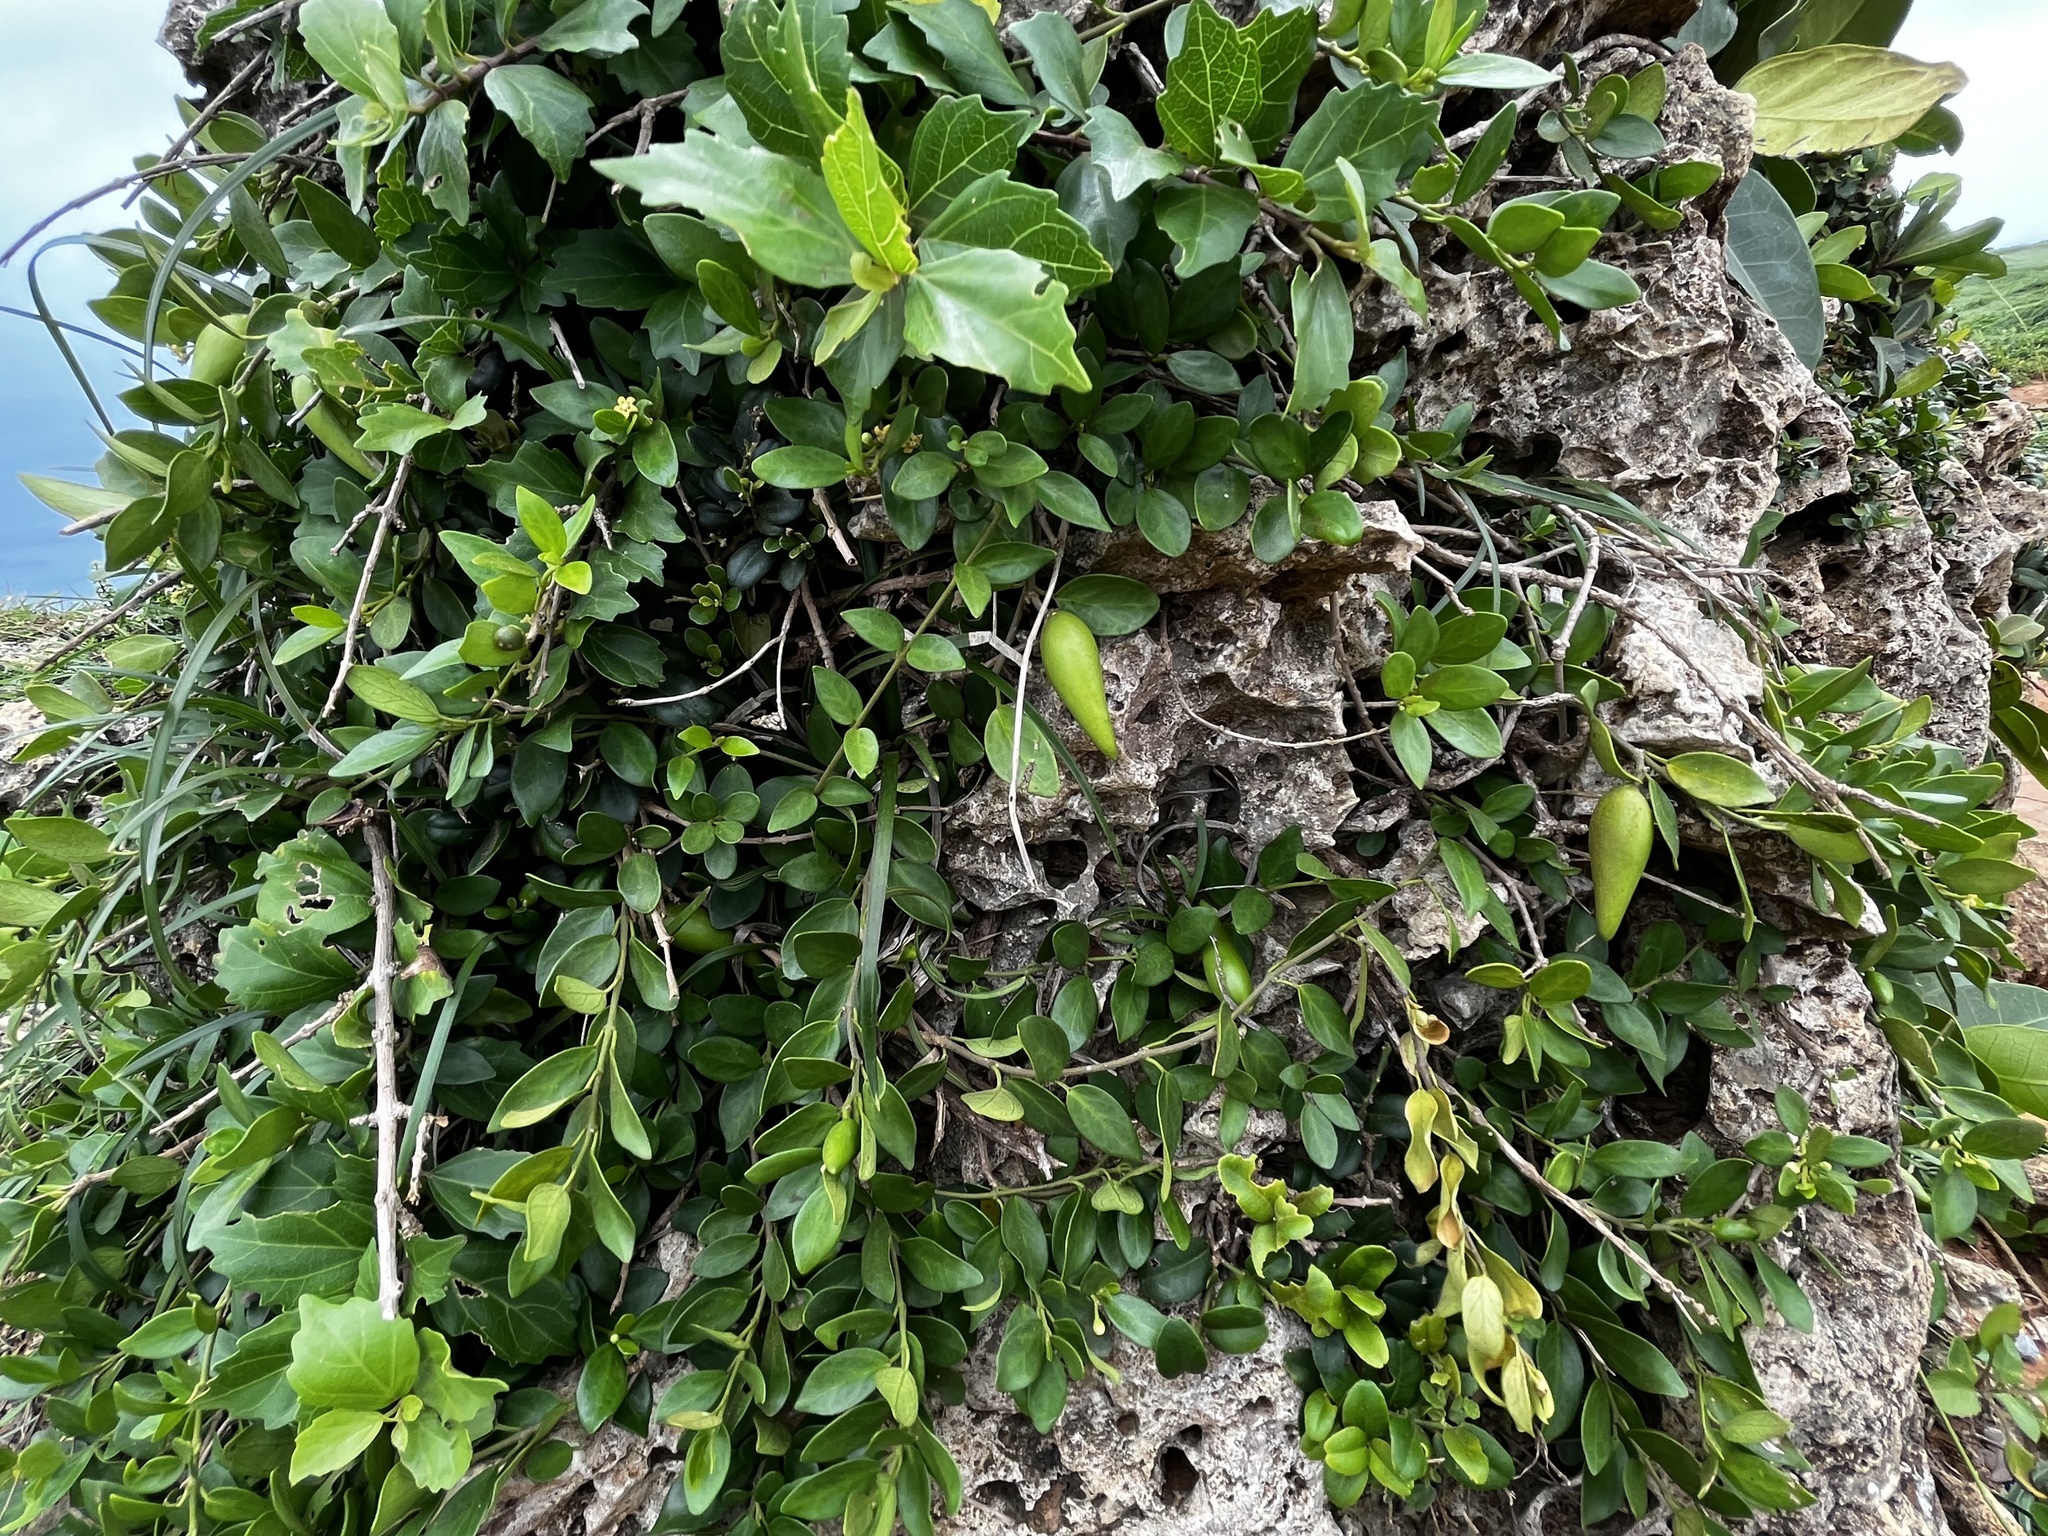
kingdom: Plantae
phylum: Tracheophyta
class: Magnoliopsida
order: Gentianales
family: Apocynaceae
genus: Gymnema
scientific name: Gymnema sylvestre
